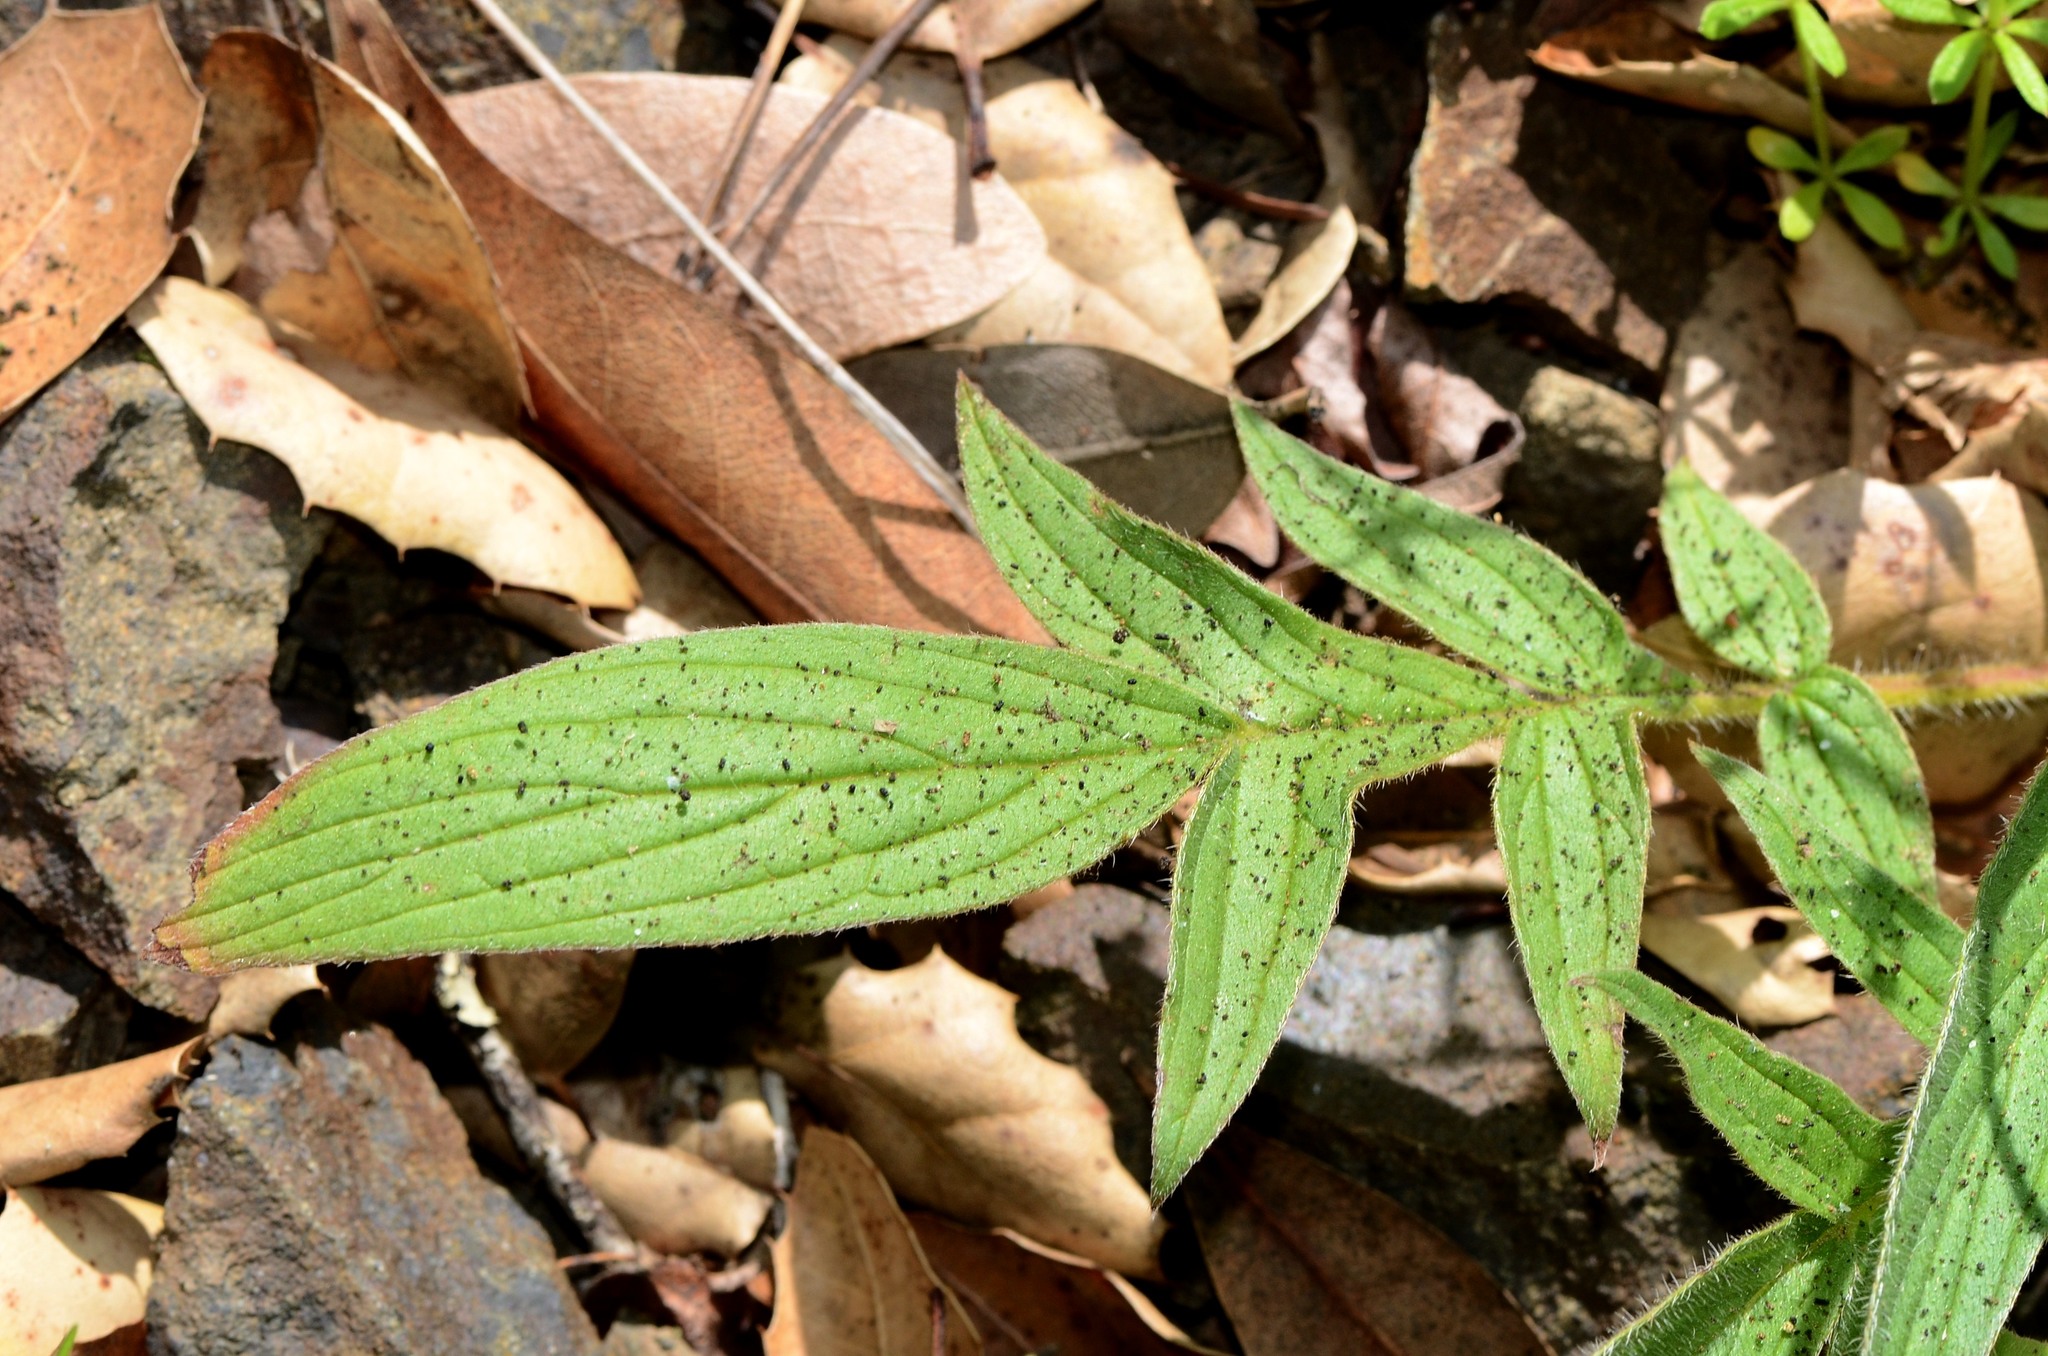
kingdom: Plantae
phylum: Tracheophyta
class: Magnoliopsida
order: Boraginales
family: Hydrophyllaceae
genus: Phacelia
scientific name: Phacelia imbricata
